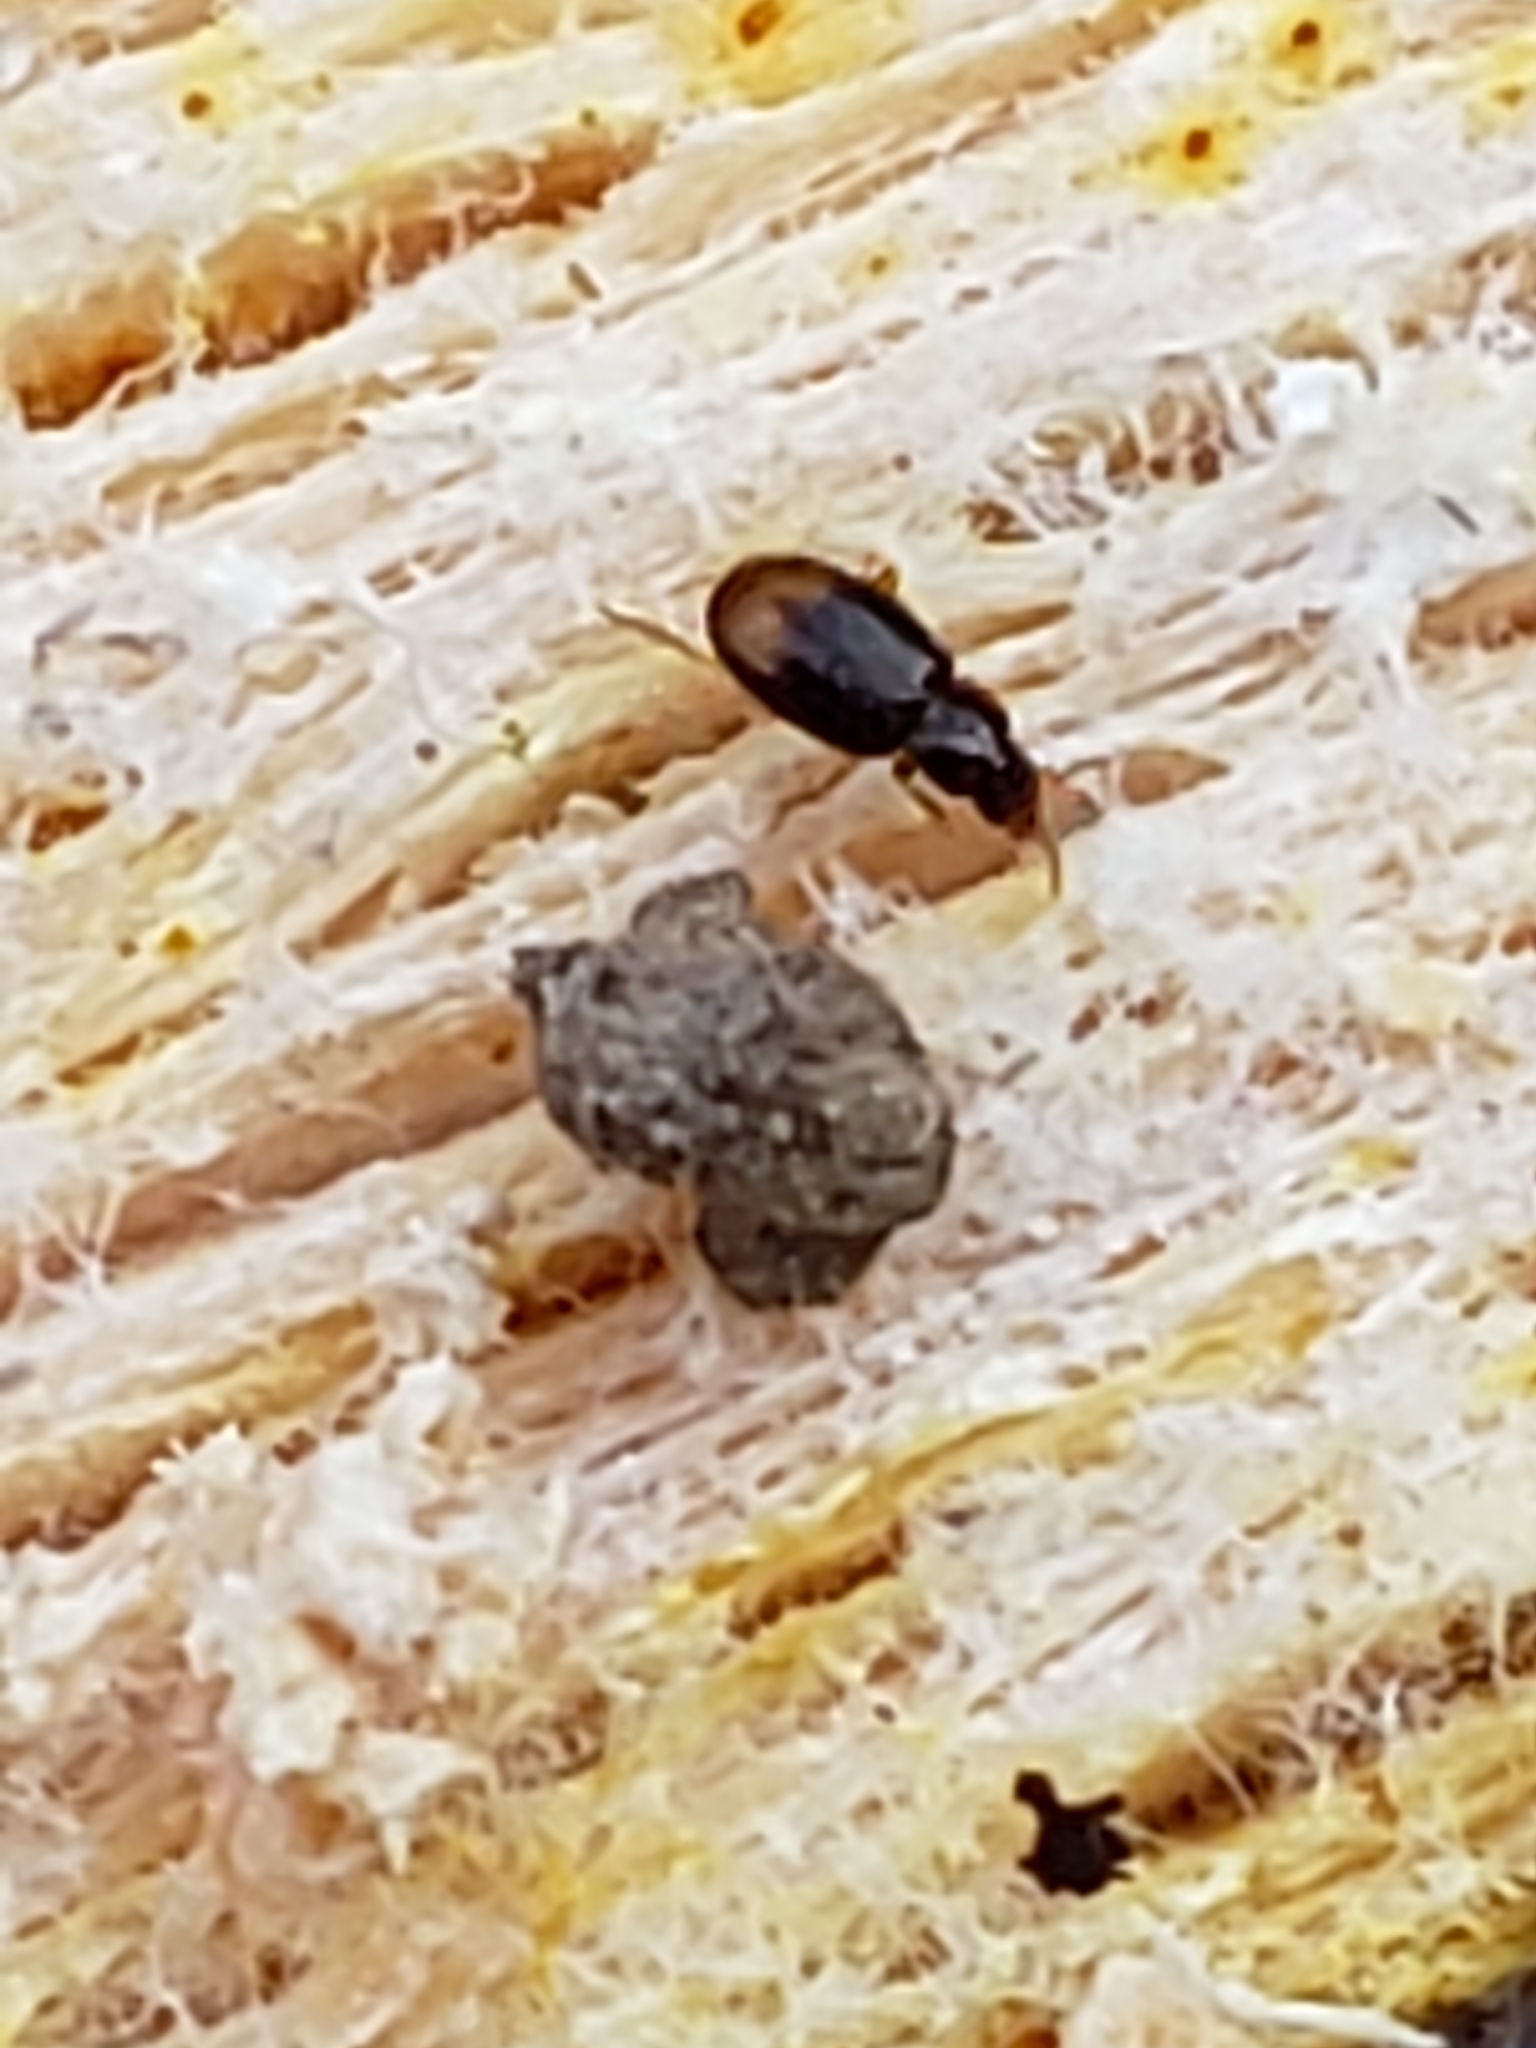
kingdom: Animalia
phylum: Arthropoda
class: Insecta
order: Coleoptera
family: Carabidae
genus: Mioptachys
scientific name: Mioptachys flavicauda
